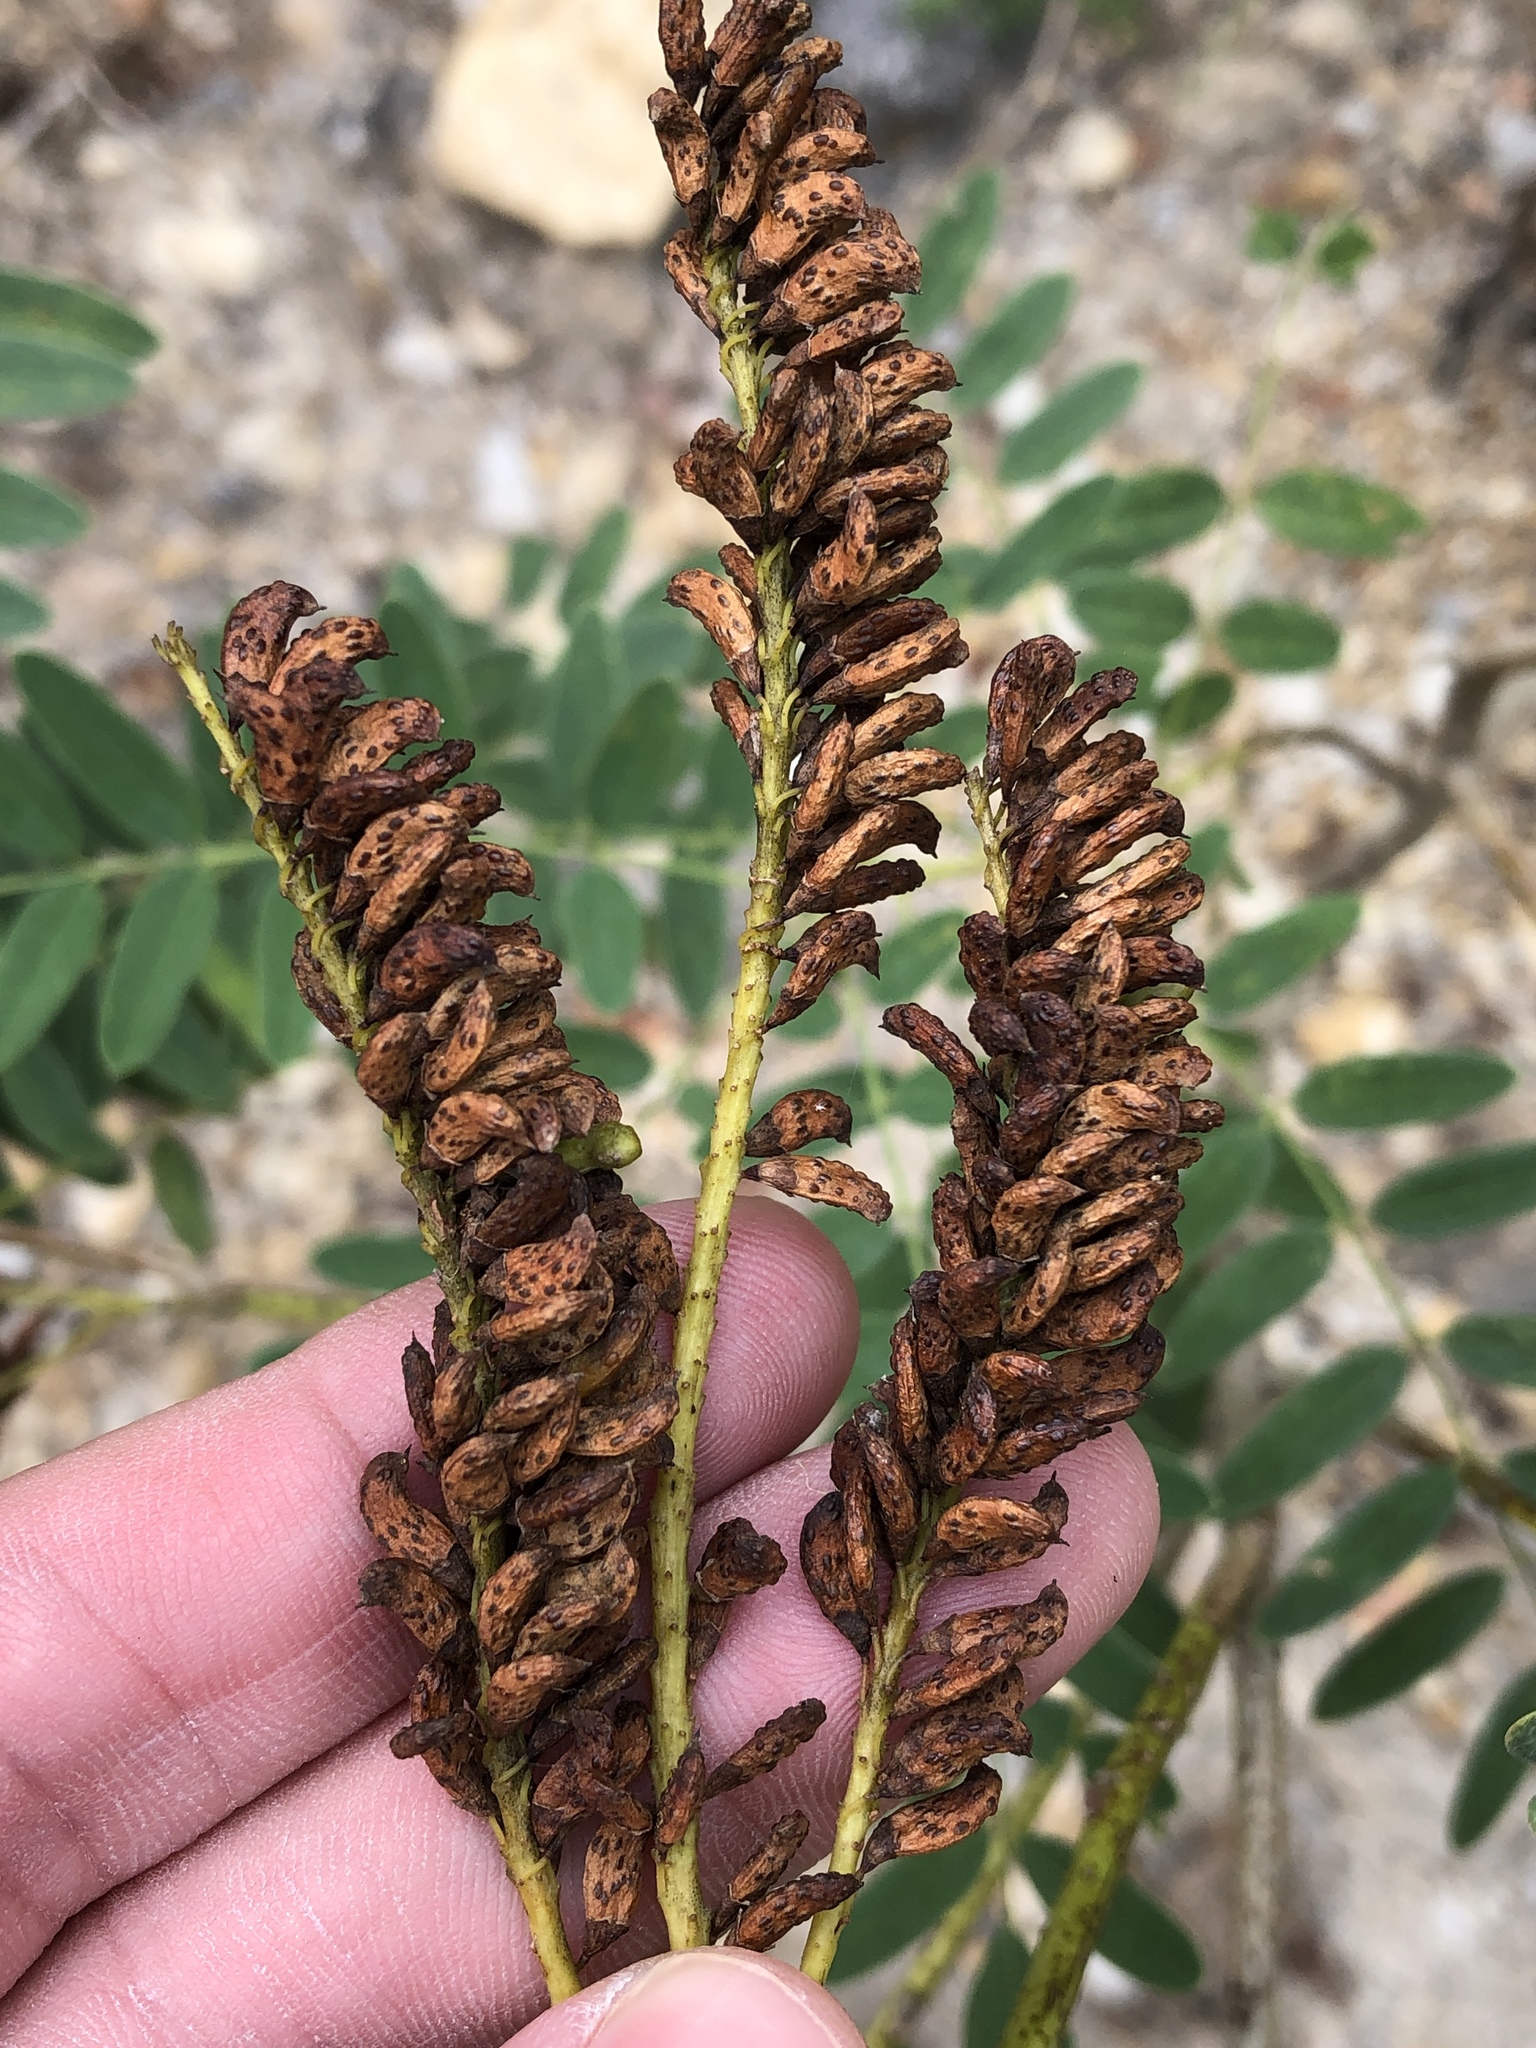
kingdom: Plantae
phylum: Tracheophyta
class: Magnoliopsida
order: Fabales
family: Fabaceae
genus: Amorpha
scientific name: Amorpha fruticosa
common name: False indigo
